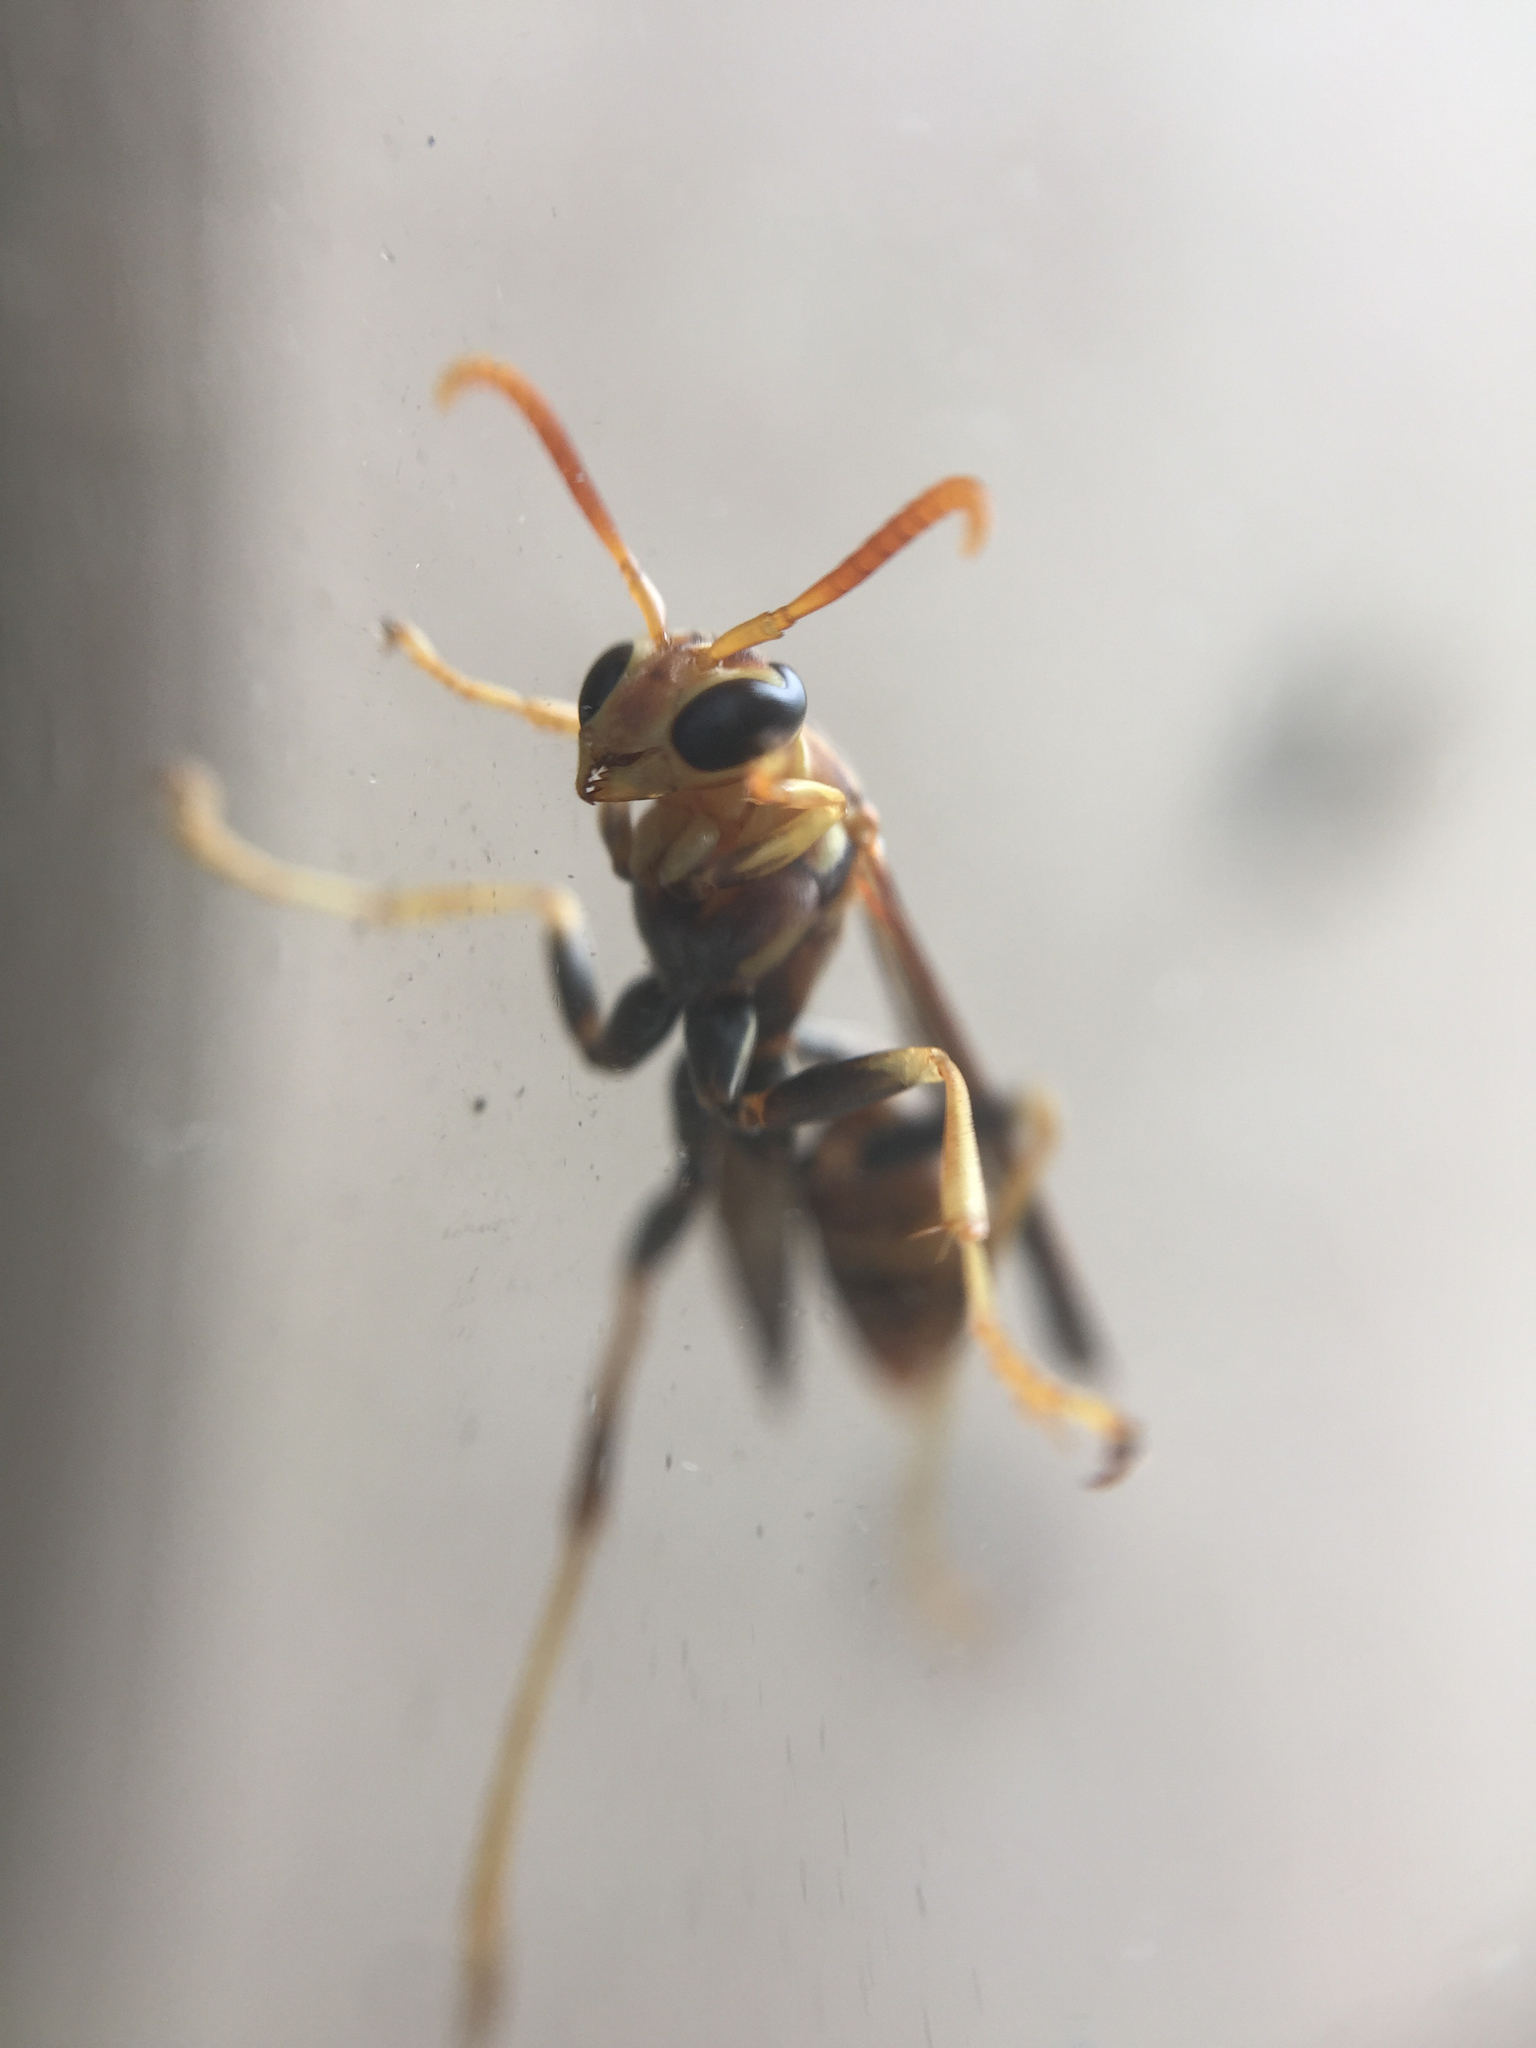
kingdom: Animalia
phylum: Arthropoda
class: Insecta
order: Hymenoptera
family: Vespidae
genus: Mischocyttarus
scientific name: Mischocyttarus mexicanus
